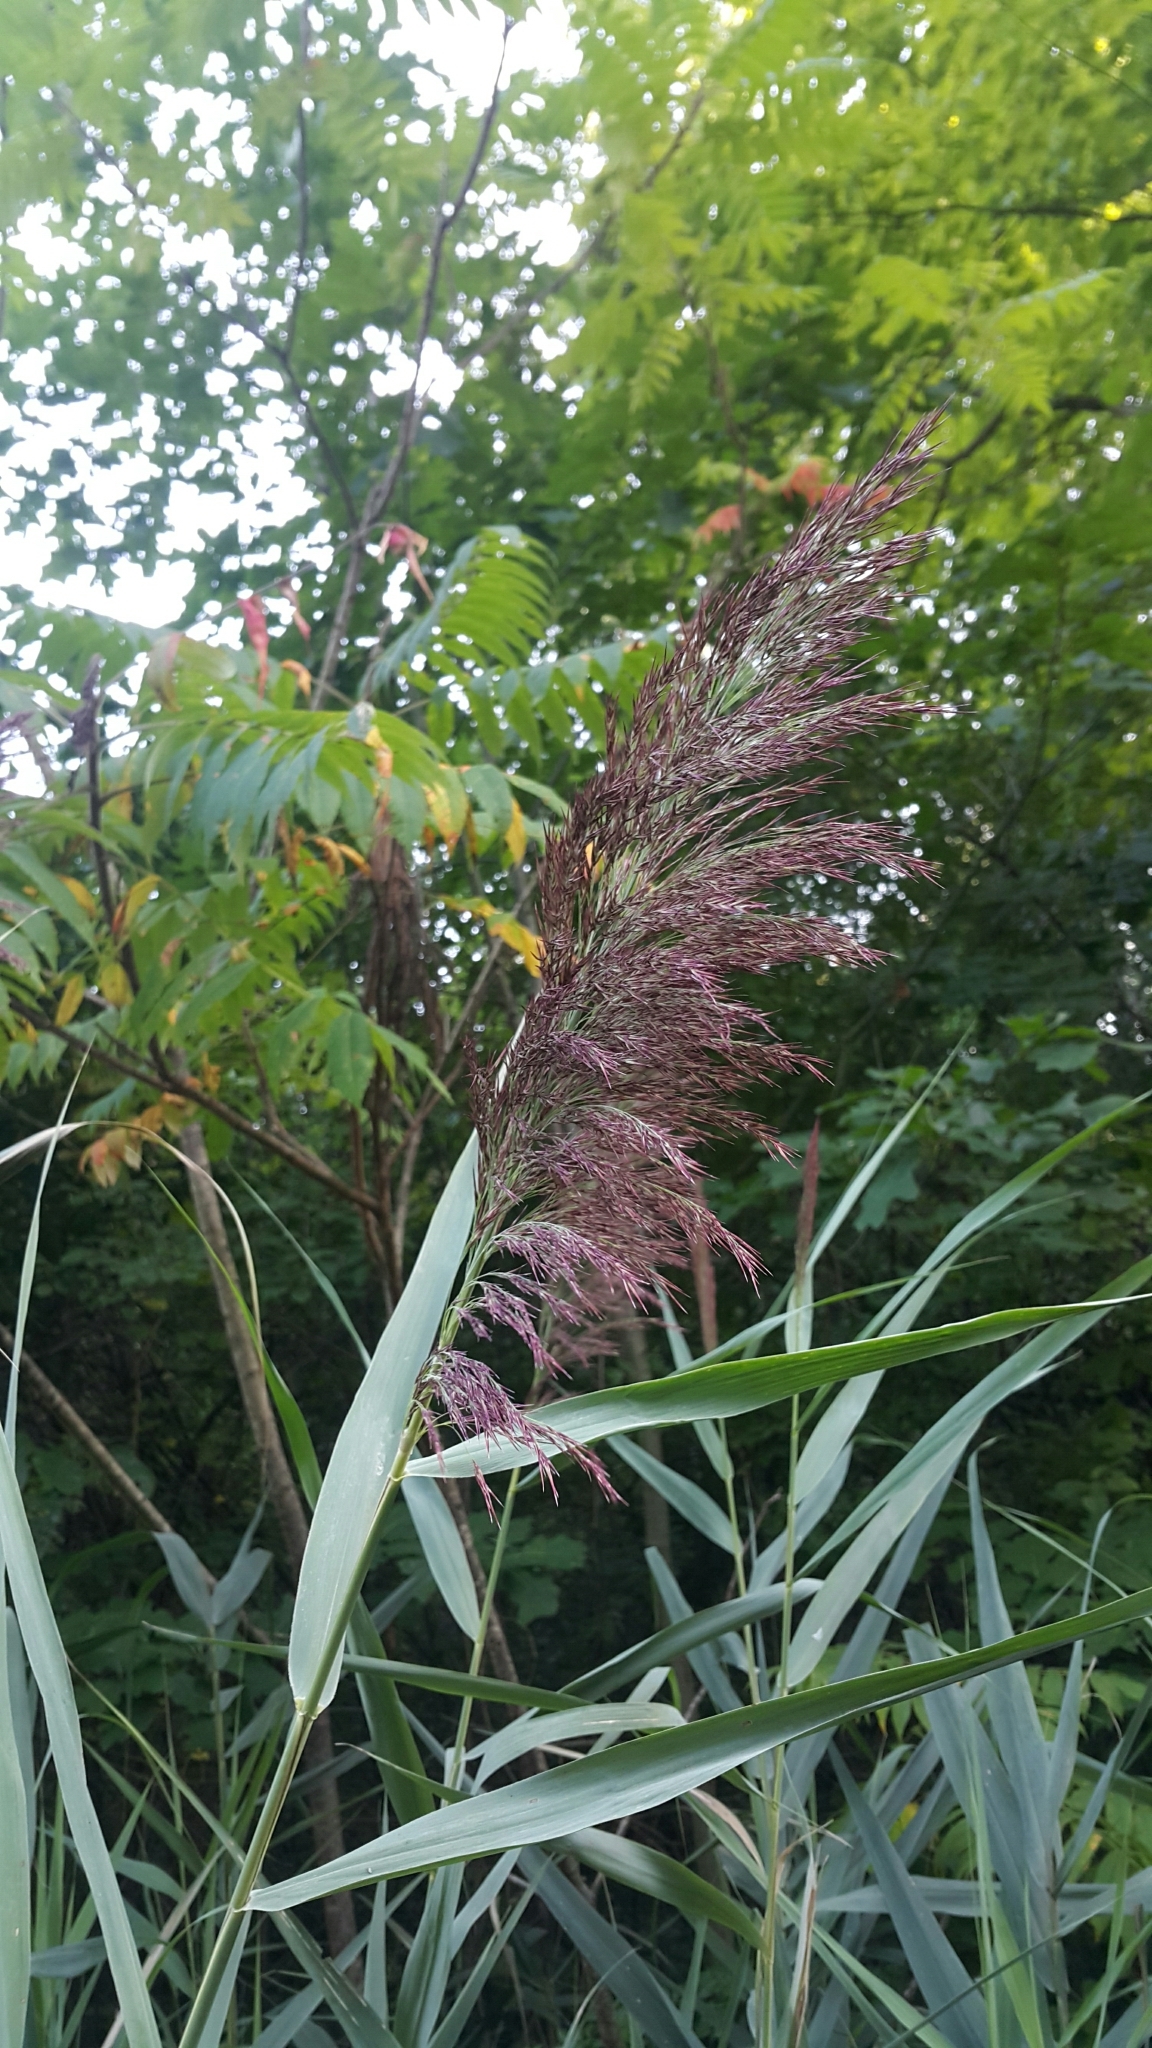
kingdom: Plantae
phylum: Tracheophyta
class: Liliopsida
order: Poales
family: Poaceae
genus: Phragmites
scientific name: Phragmites australis
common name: Common reed
